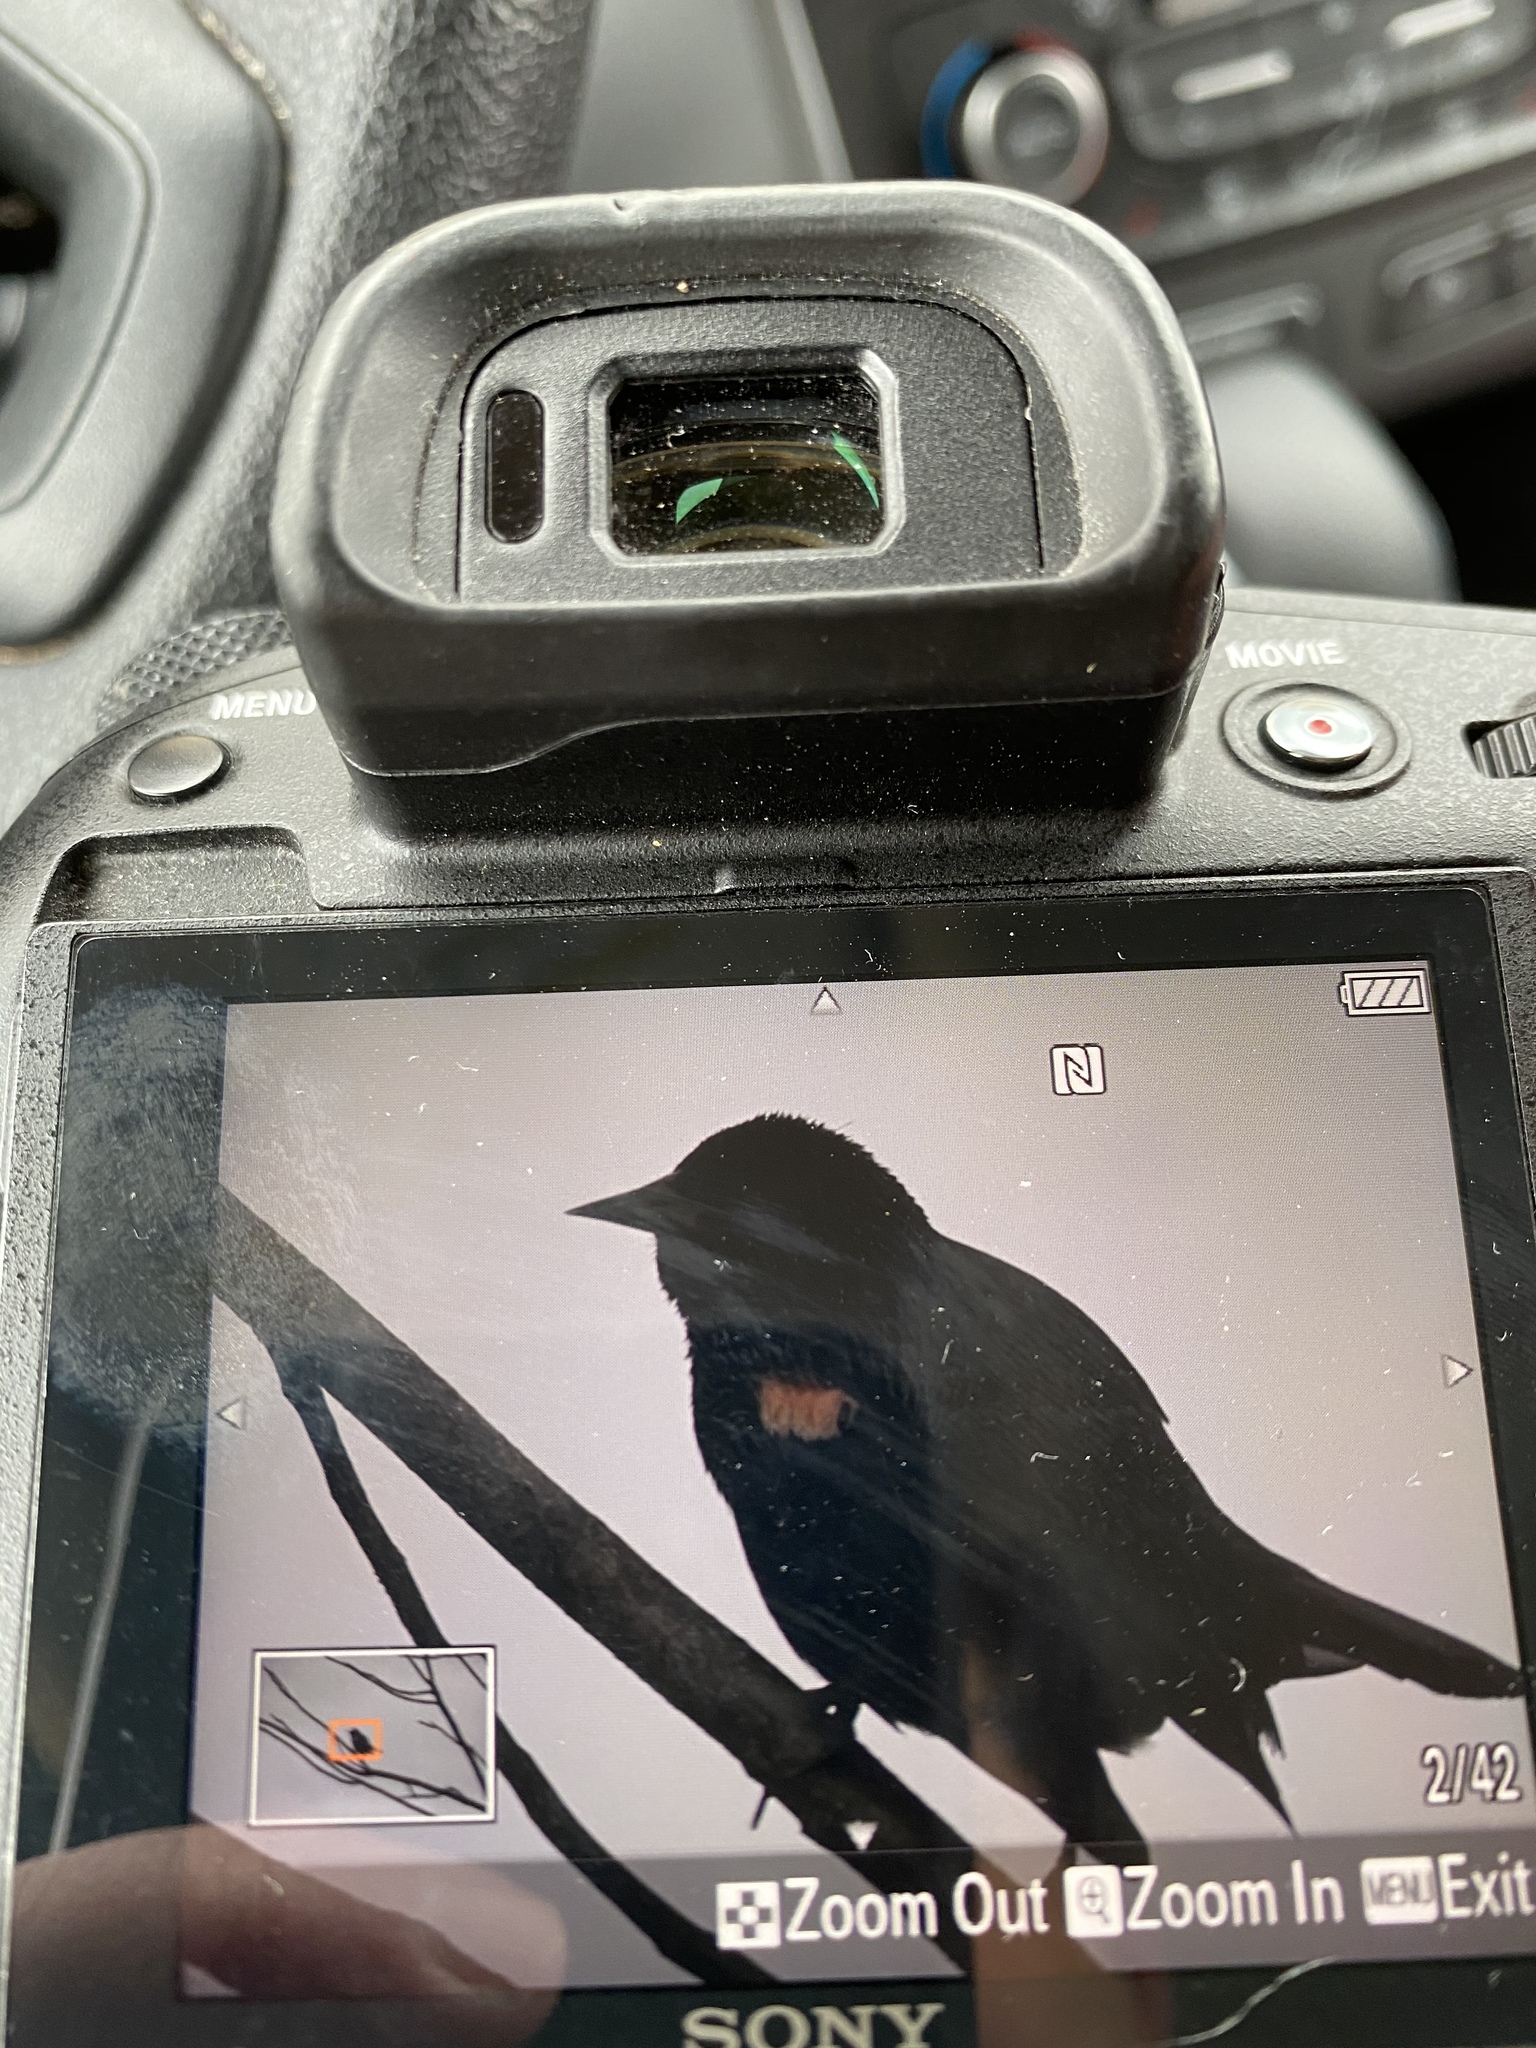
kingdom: Animalia
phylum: Chordata
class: Aves
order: Passeriformes
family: Icteridae
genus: Agelaius
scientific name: Agelaius phoeniceus
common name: Red-winged blackbird
